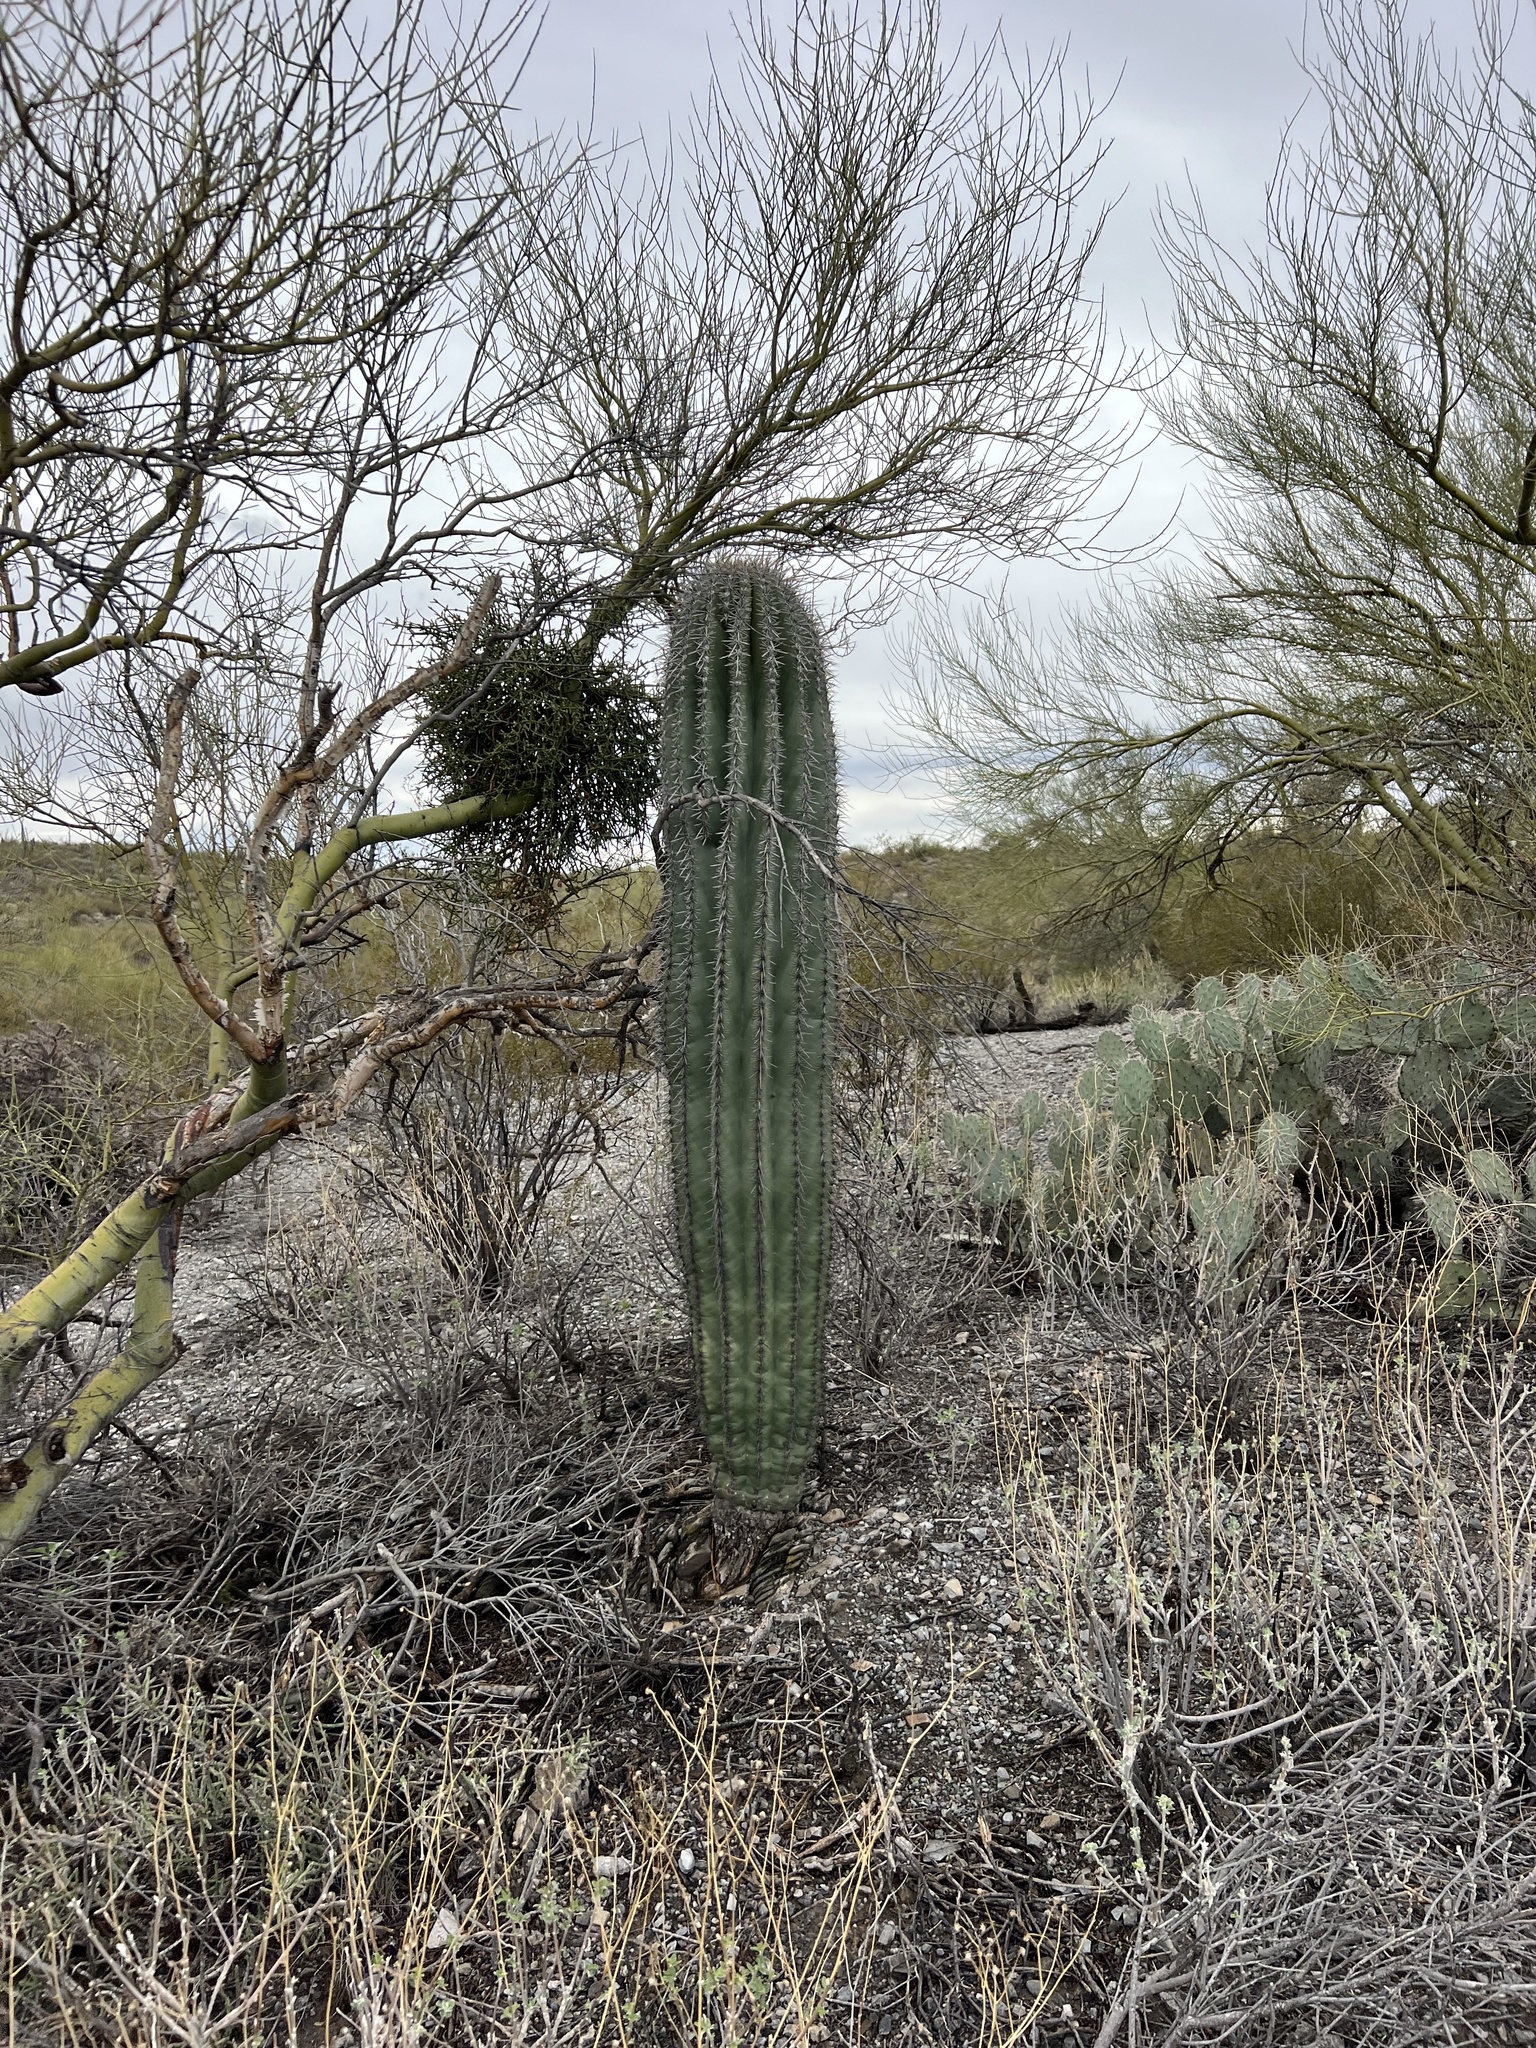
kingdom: Plantae
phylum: Tracheophyta
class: Magnoliopsida
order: Caryophyllales
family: Cactaceae
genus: Carnegiea
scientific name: Carnegiea gigantea
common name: Saguaro
